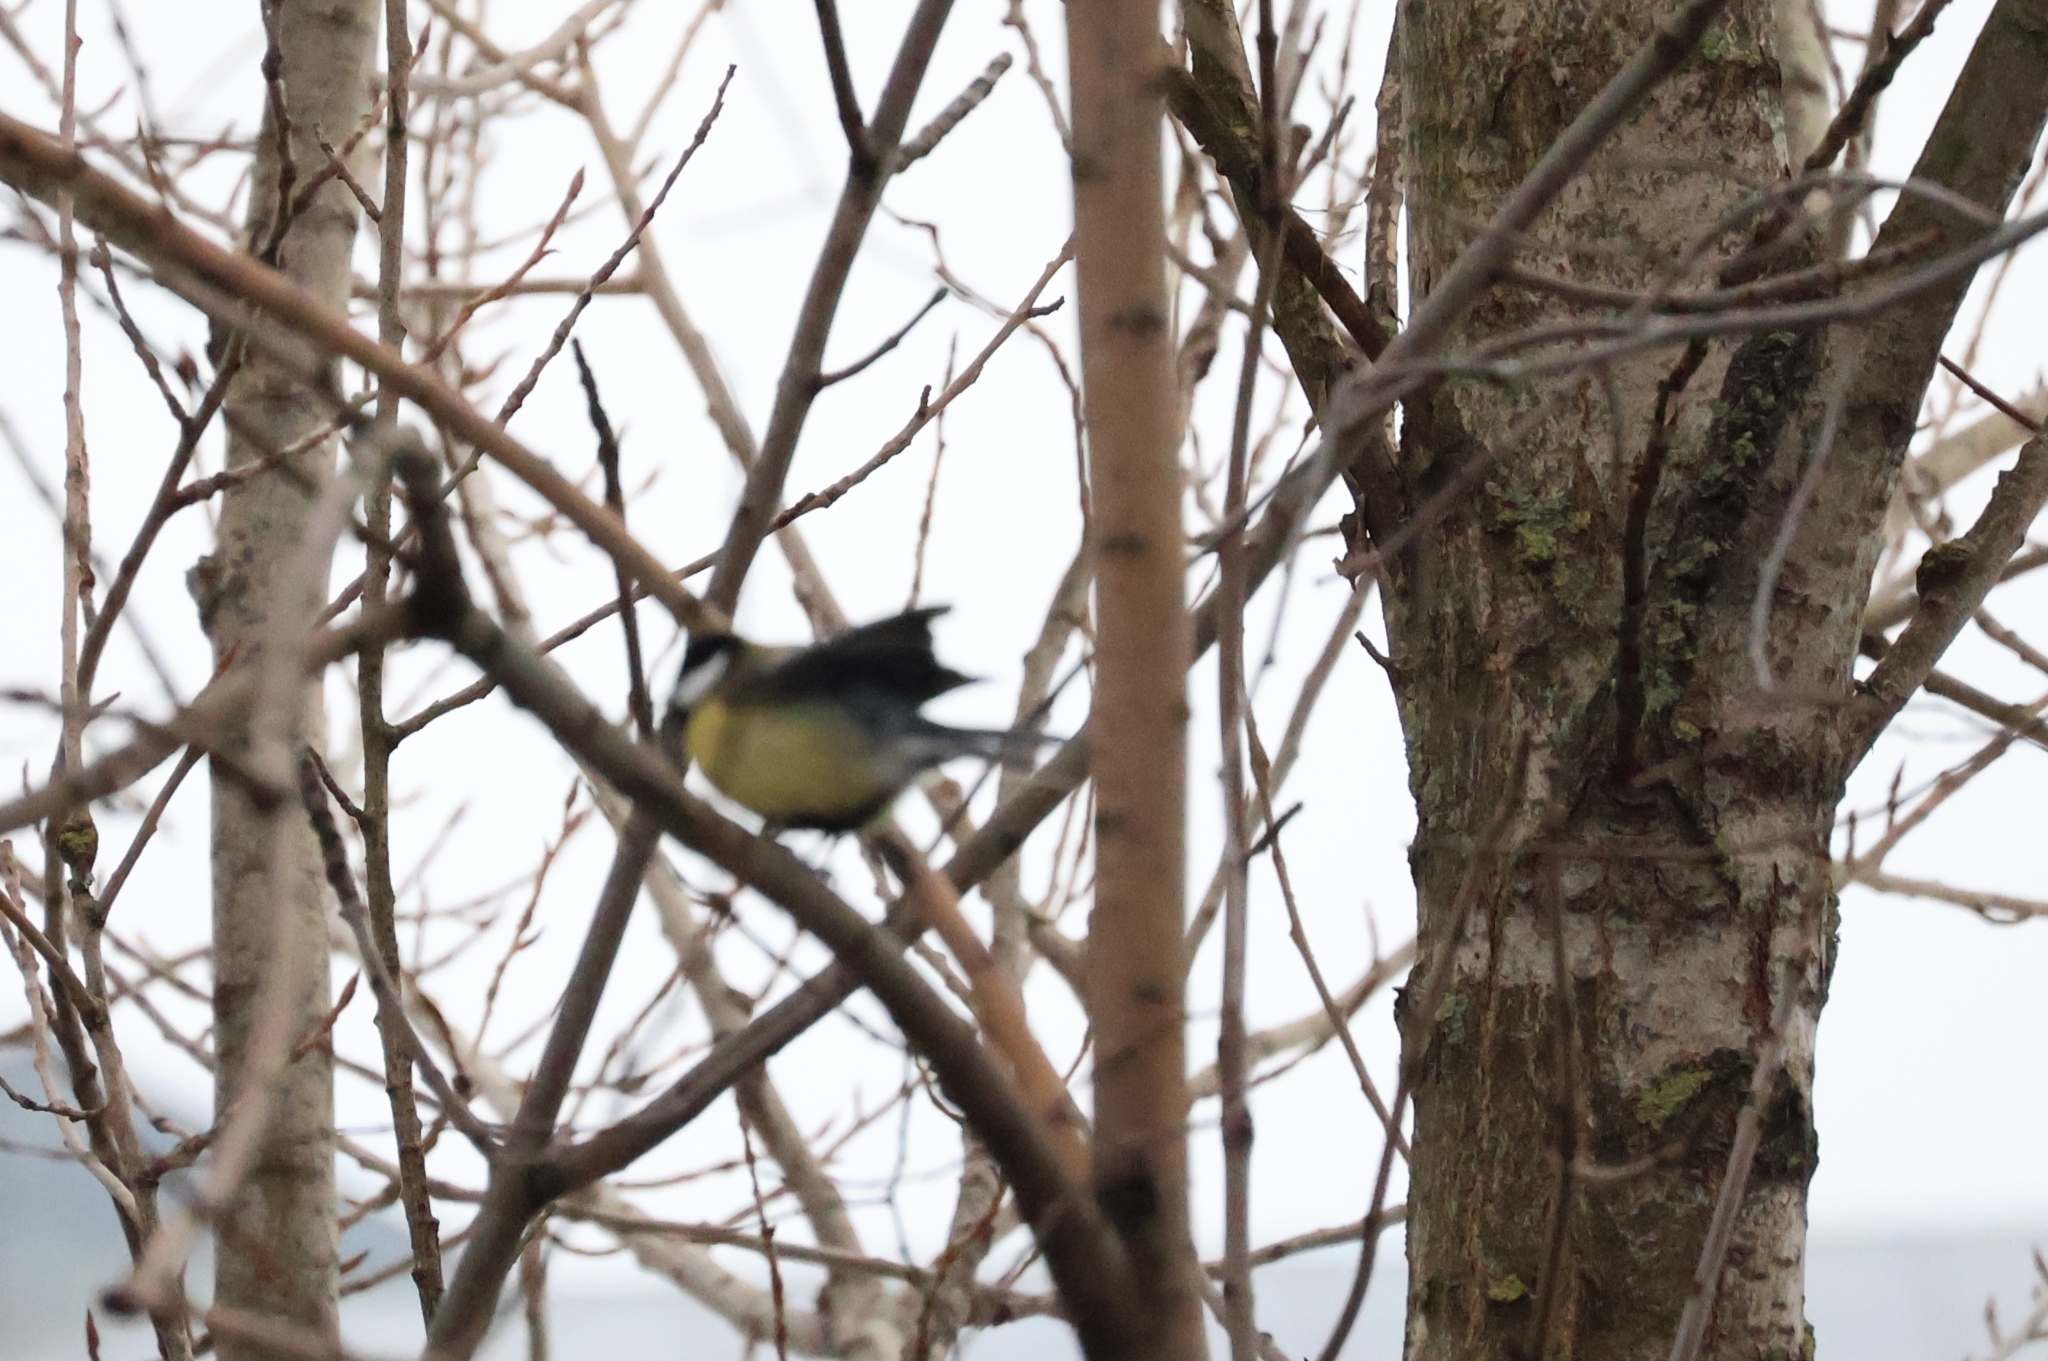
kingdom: Animalia
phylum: Chordata
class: Aves
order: Passeriformes
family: Paridae
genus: Parus
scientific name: Parus major
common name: Great tit
